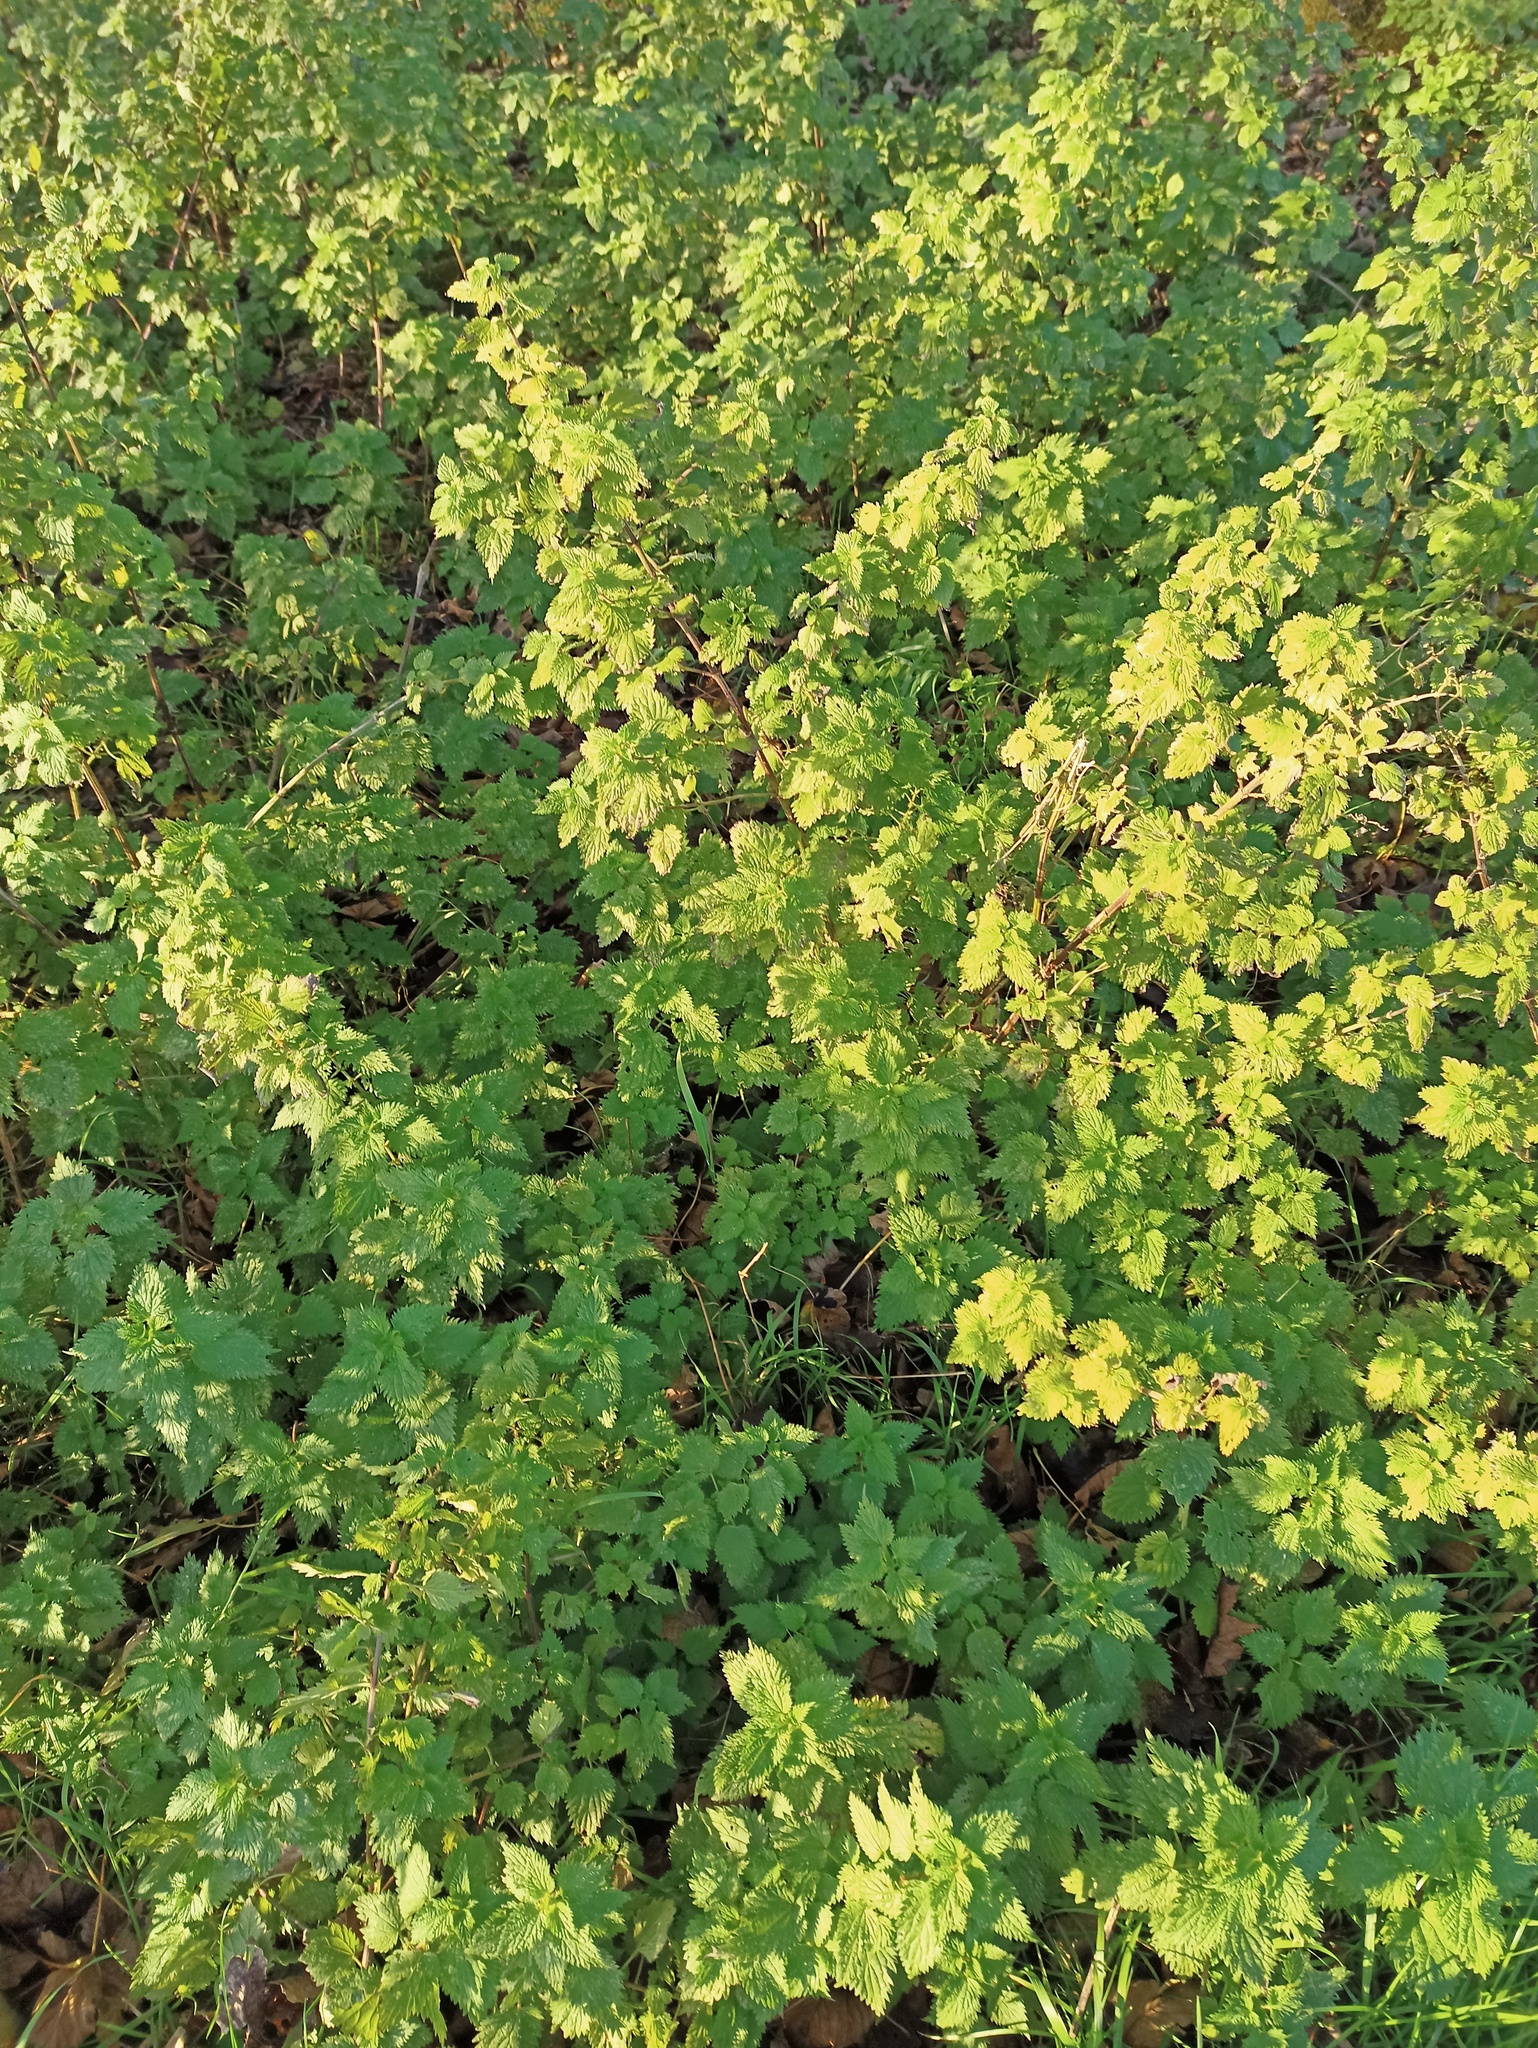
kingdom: Plantae
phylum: Tracheophyta
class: Magnoliopsida
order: Rosales
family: Urticaceae
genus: Urtica
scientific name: Urtica dioica
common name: Common nettle
